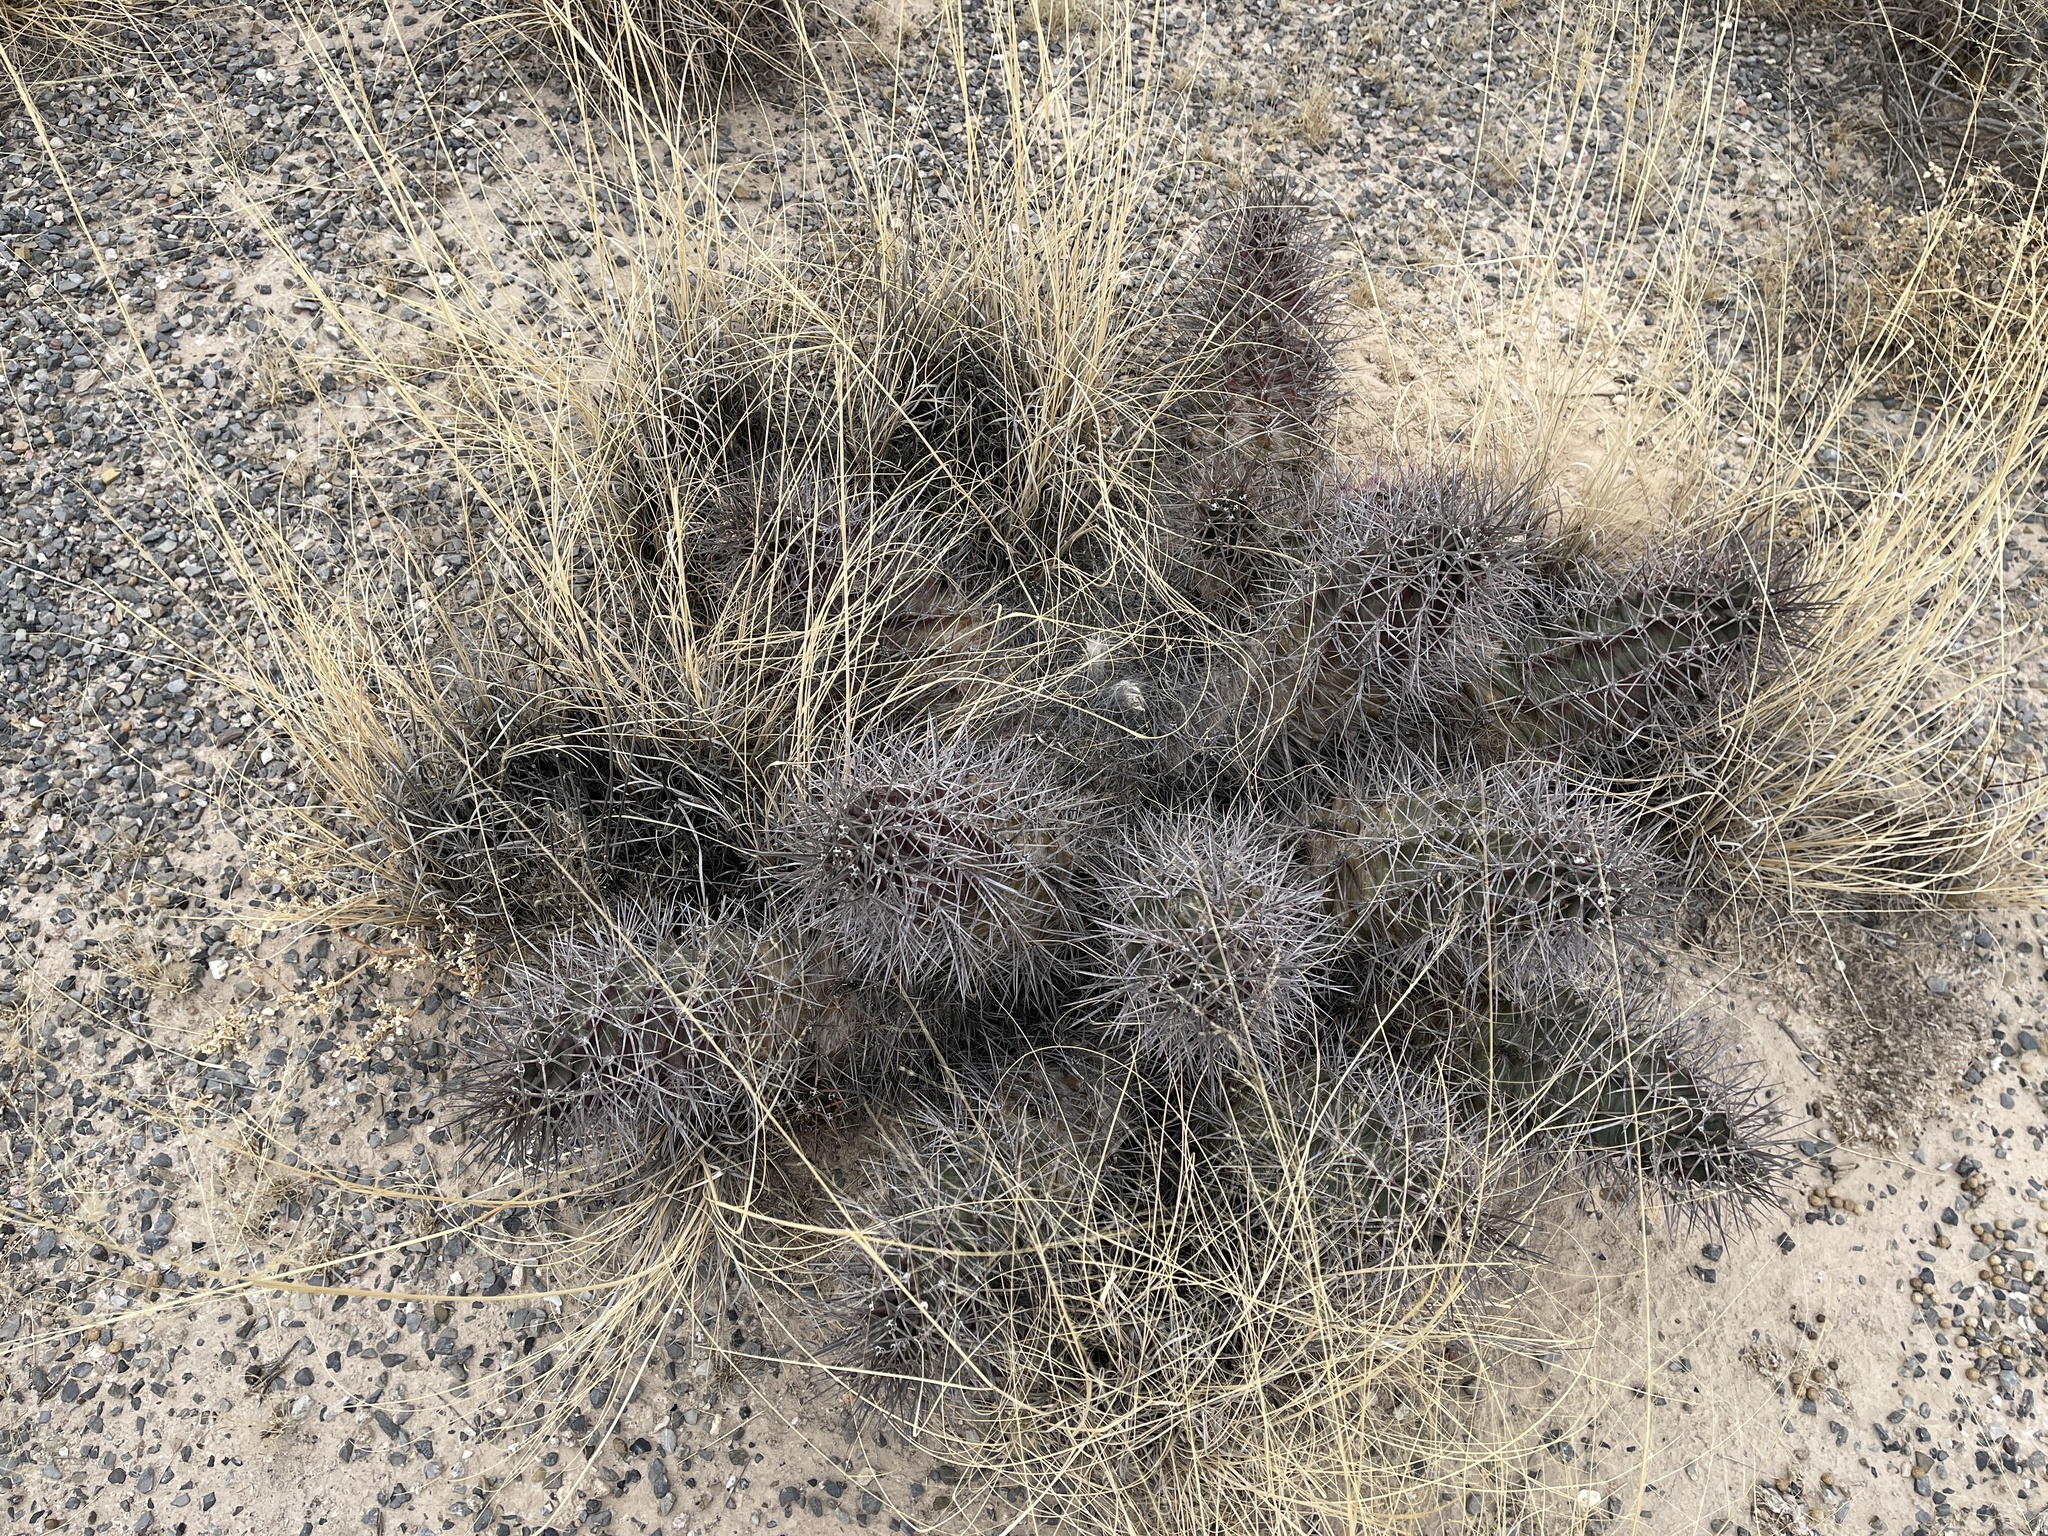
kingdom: Plantae
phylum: Tracheophyta
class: Magnoliopsida
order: Caryophyllales
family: Cactaceae
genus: Echinocereus
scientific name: Echinocereus triglochidiatus
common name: Claretcup hedgehog
